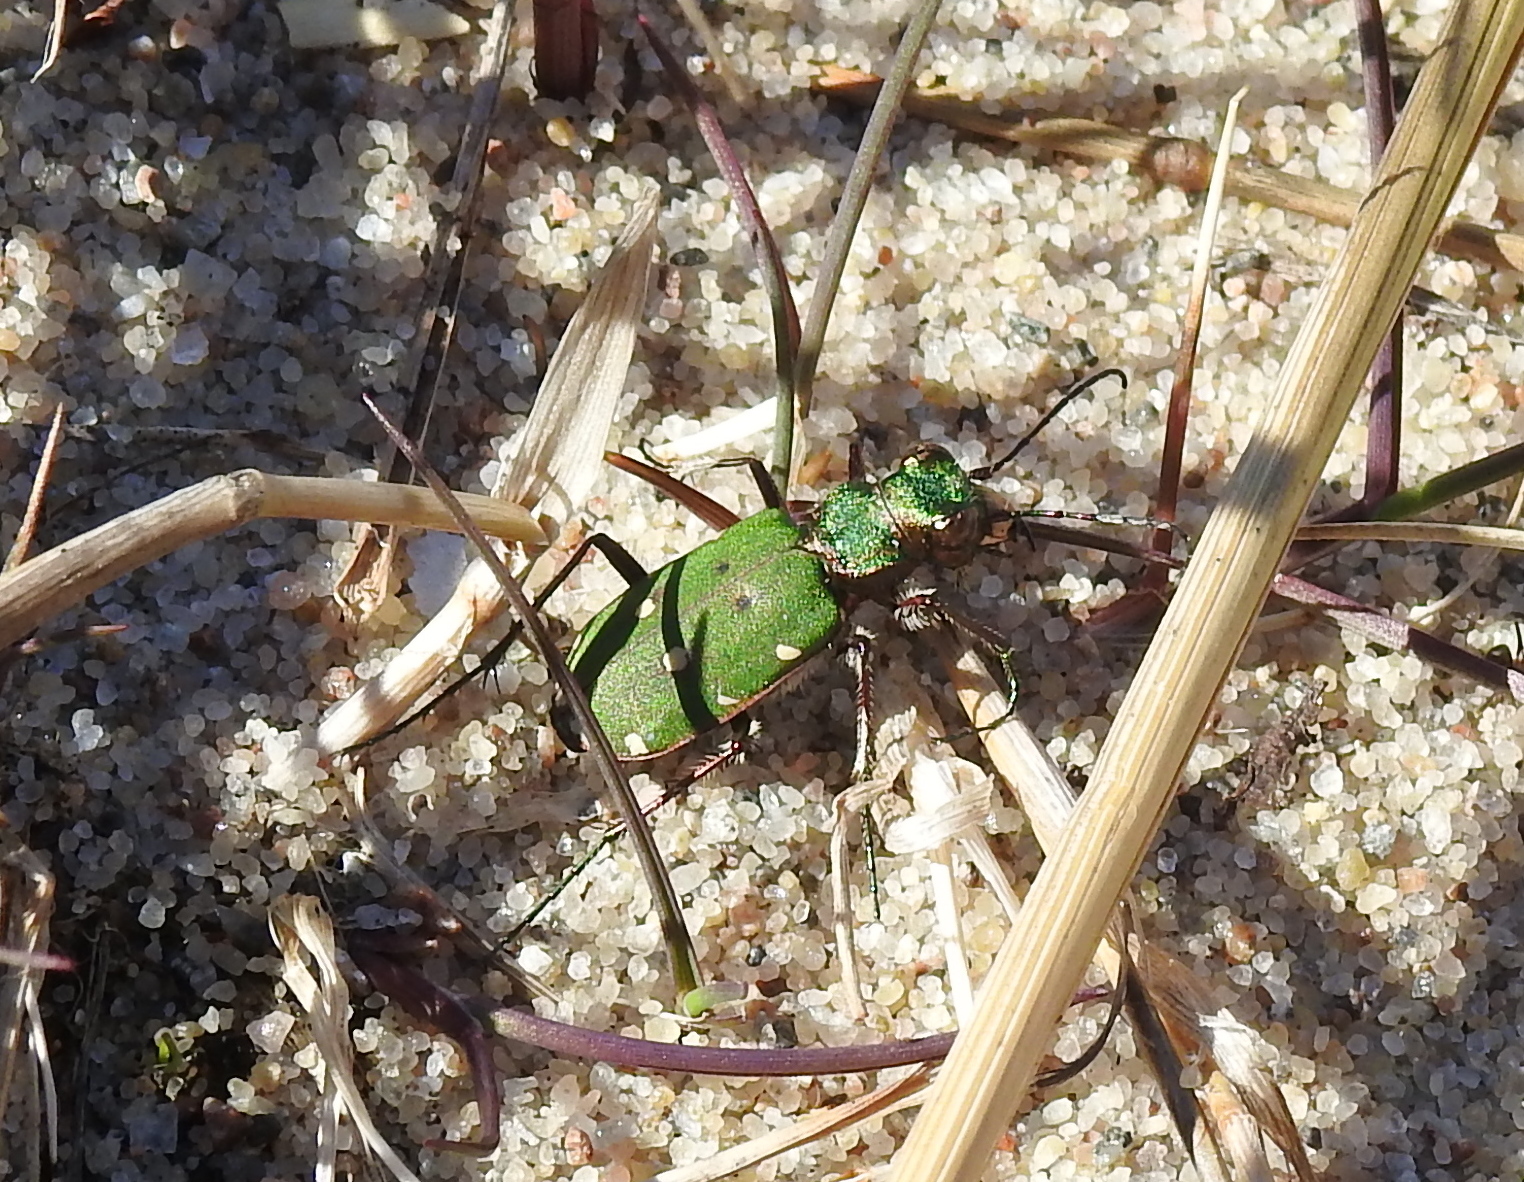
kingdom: Animalia
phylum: Arthropoda
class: Insecta
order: Coleoptera
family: Carabidae
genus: Cicindela
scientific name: Cicindela campestris
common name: Common tiger beetle
